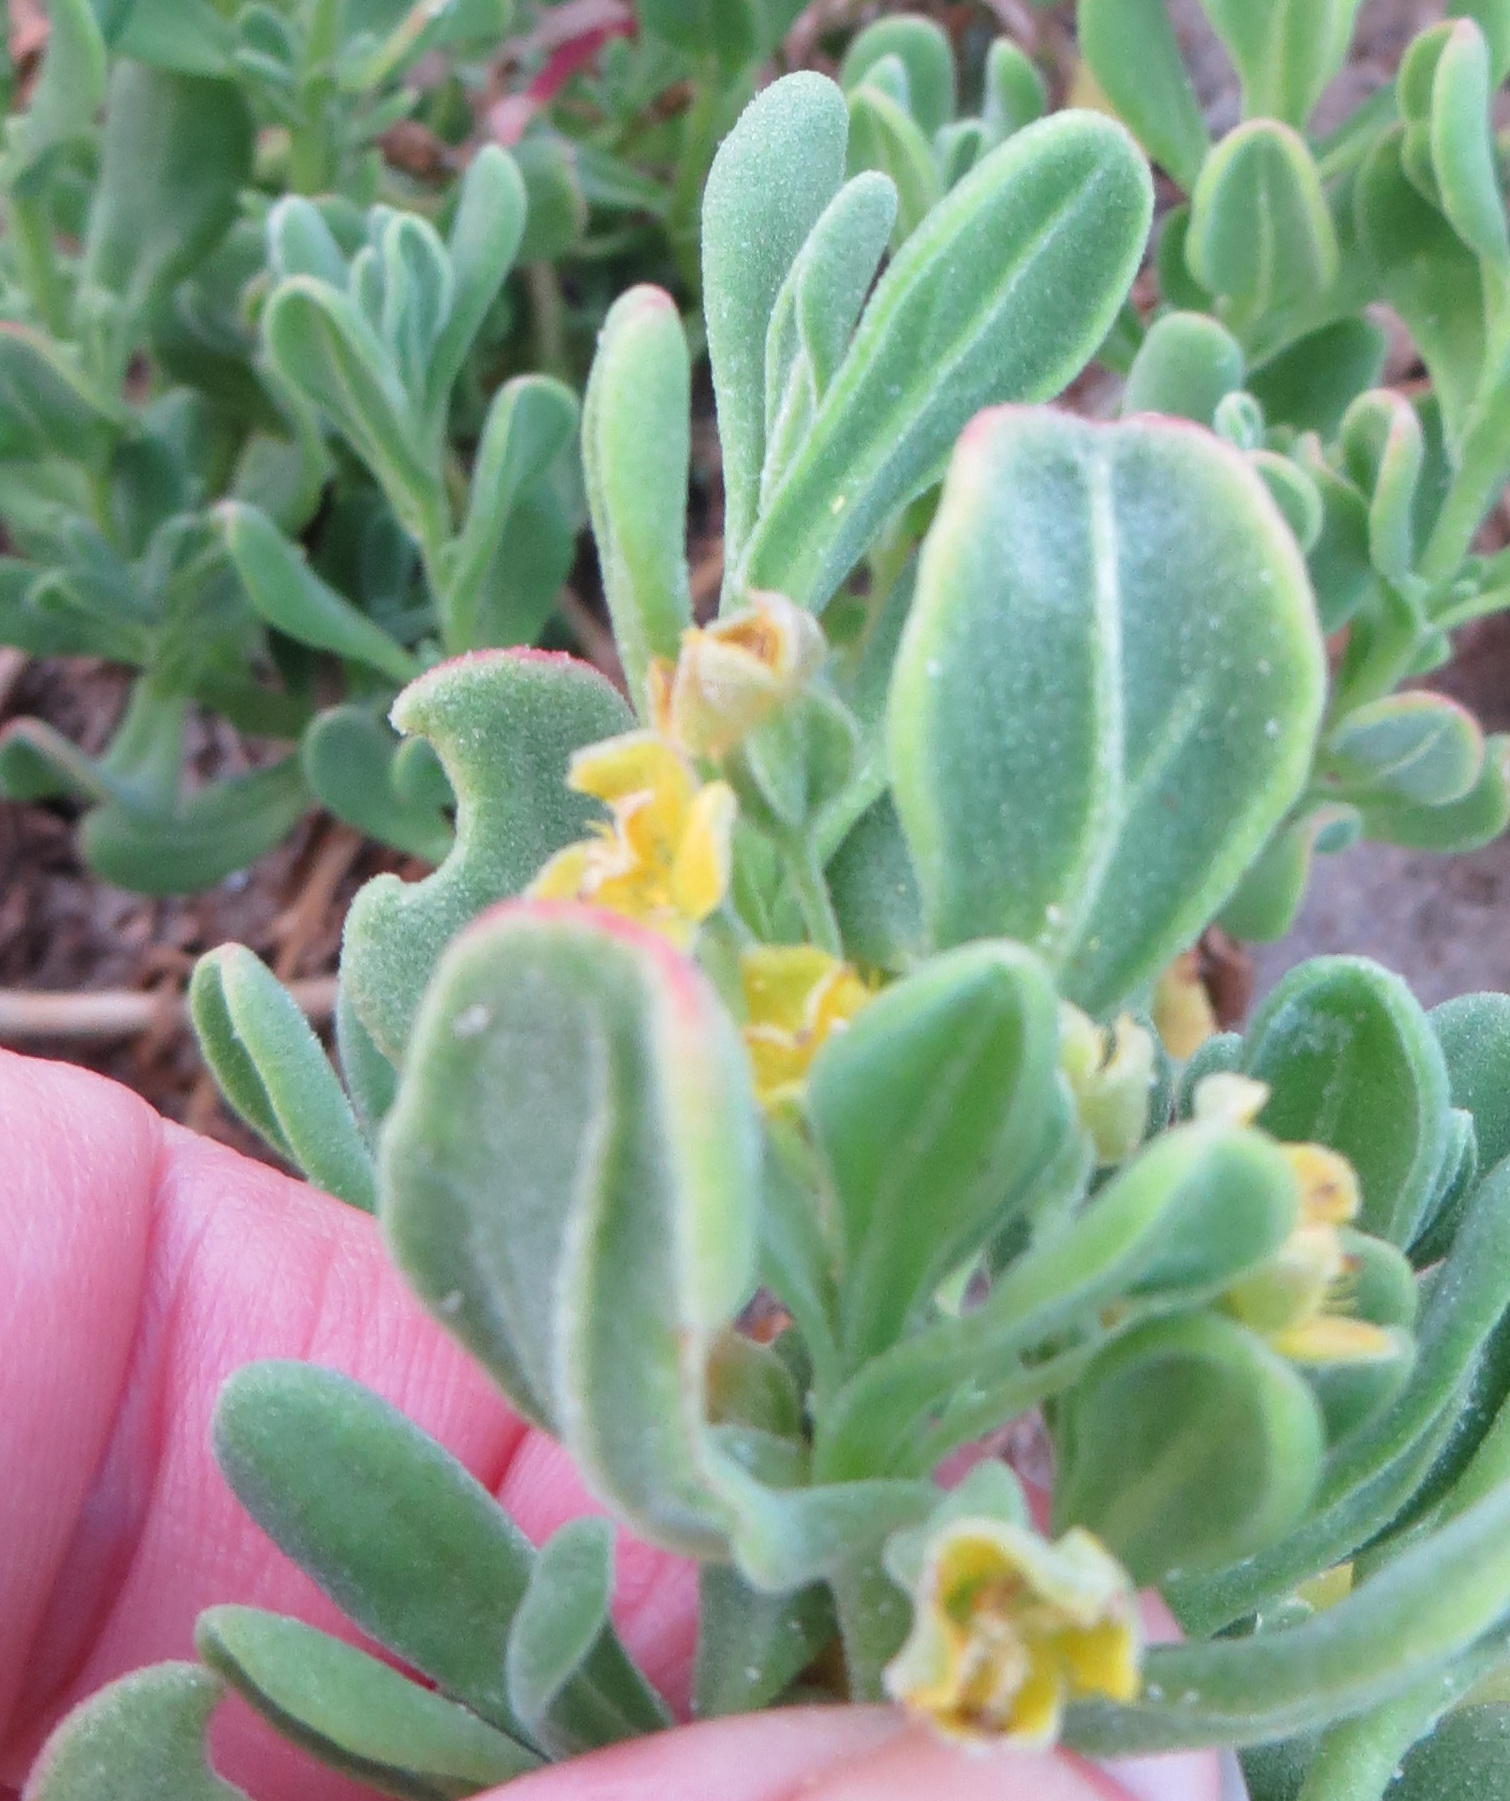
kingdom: Plantae
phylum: Tracheophyta
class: Magnoliopsida
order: Caryophyllales
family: Aizoaceae
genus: Tetragonia
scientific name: Tetragonia decumbens
